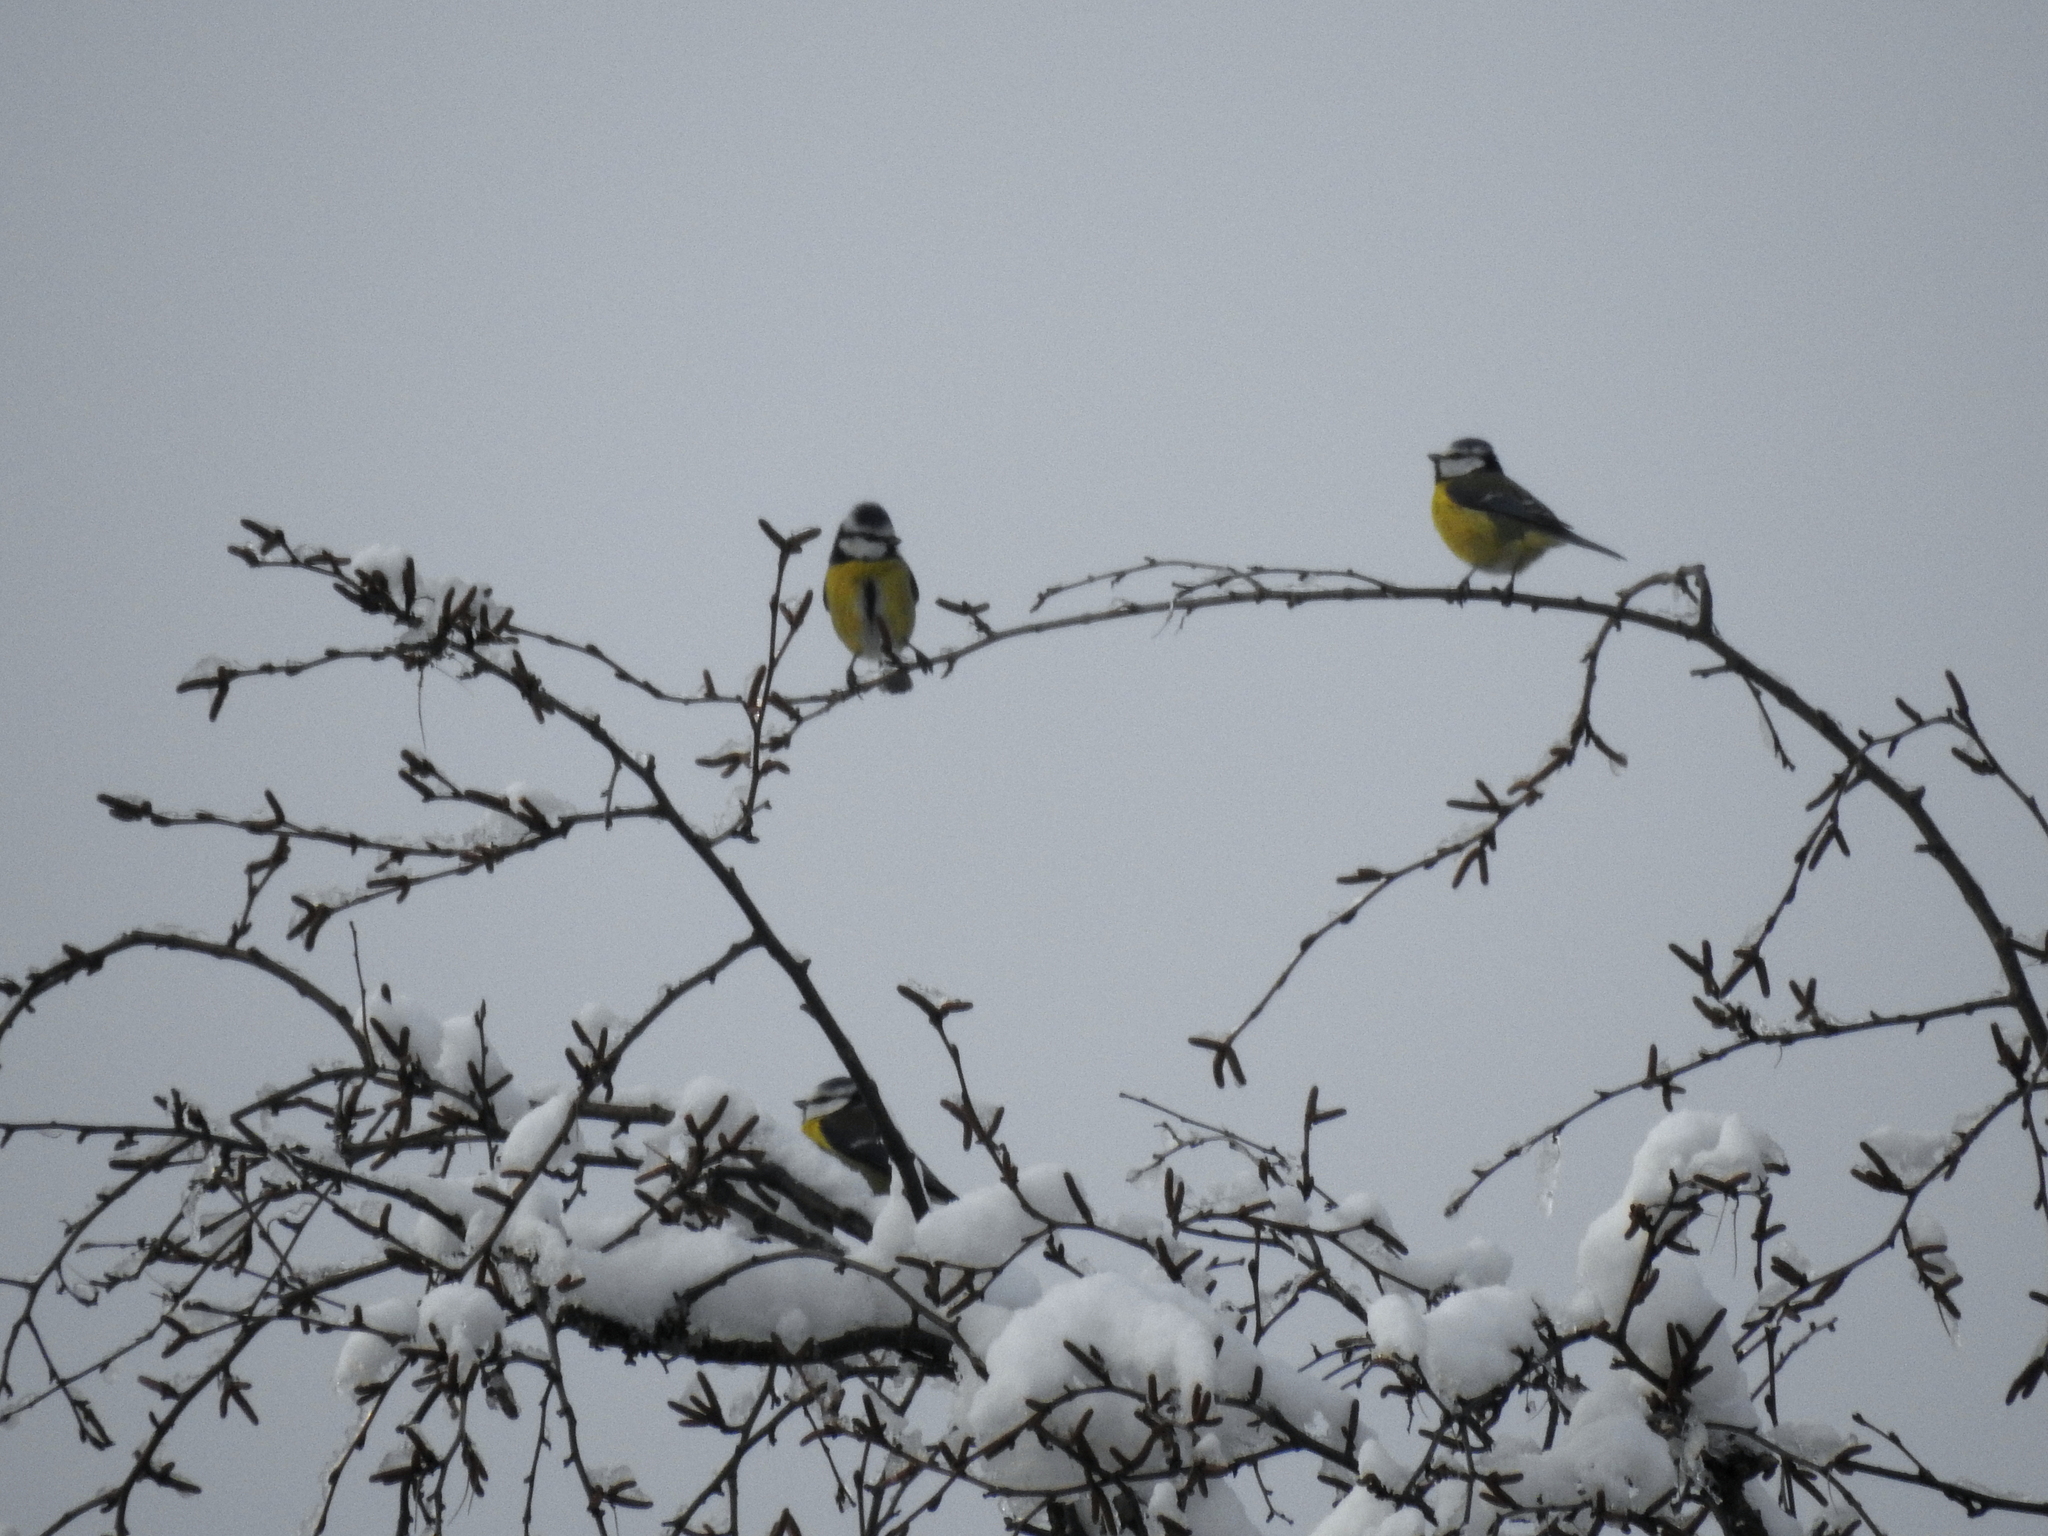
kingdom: Animalia
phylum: Chordata
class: Aves
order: Passeriformes
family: Paridae
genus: Cyanistes
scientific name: Cyanistes caeruleus
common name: Eurasian blue tit
